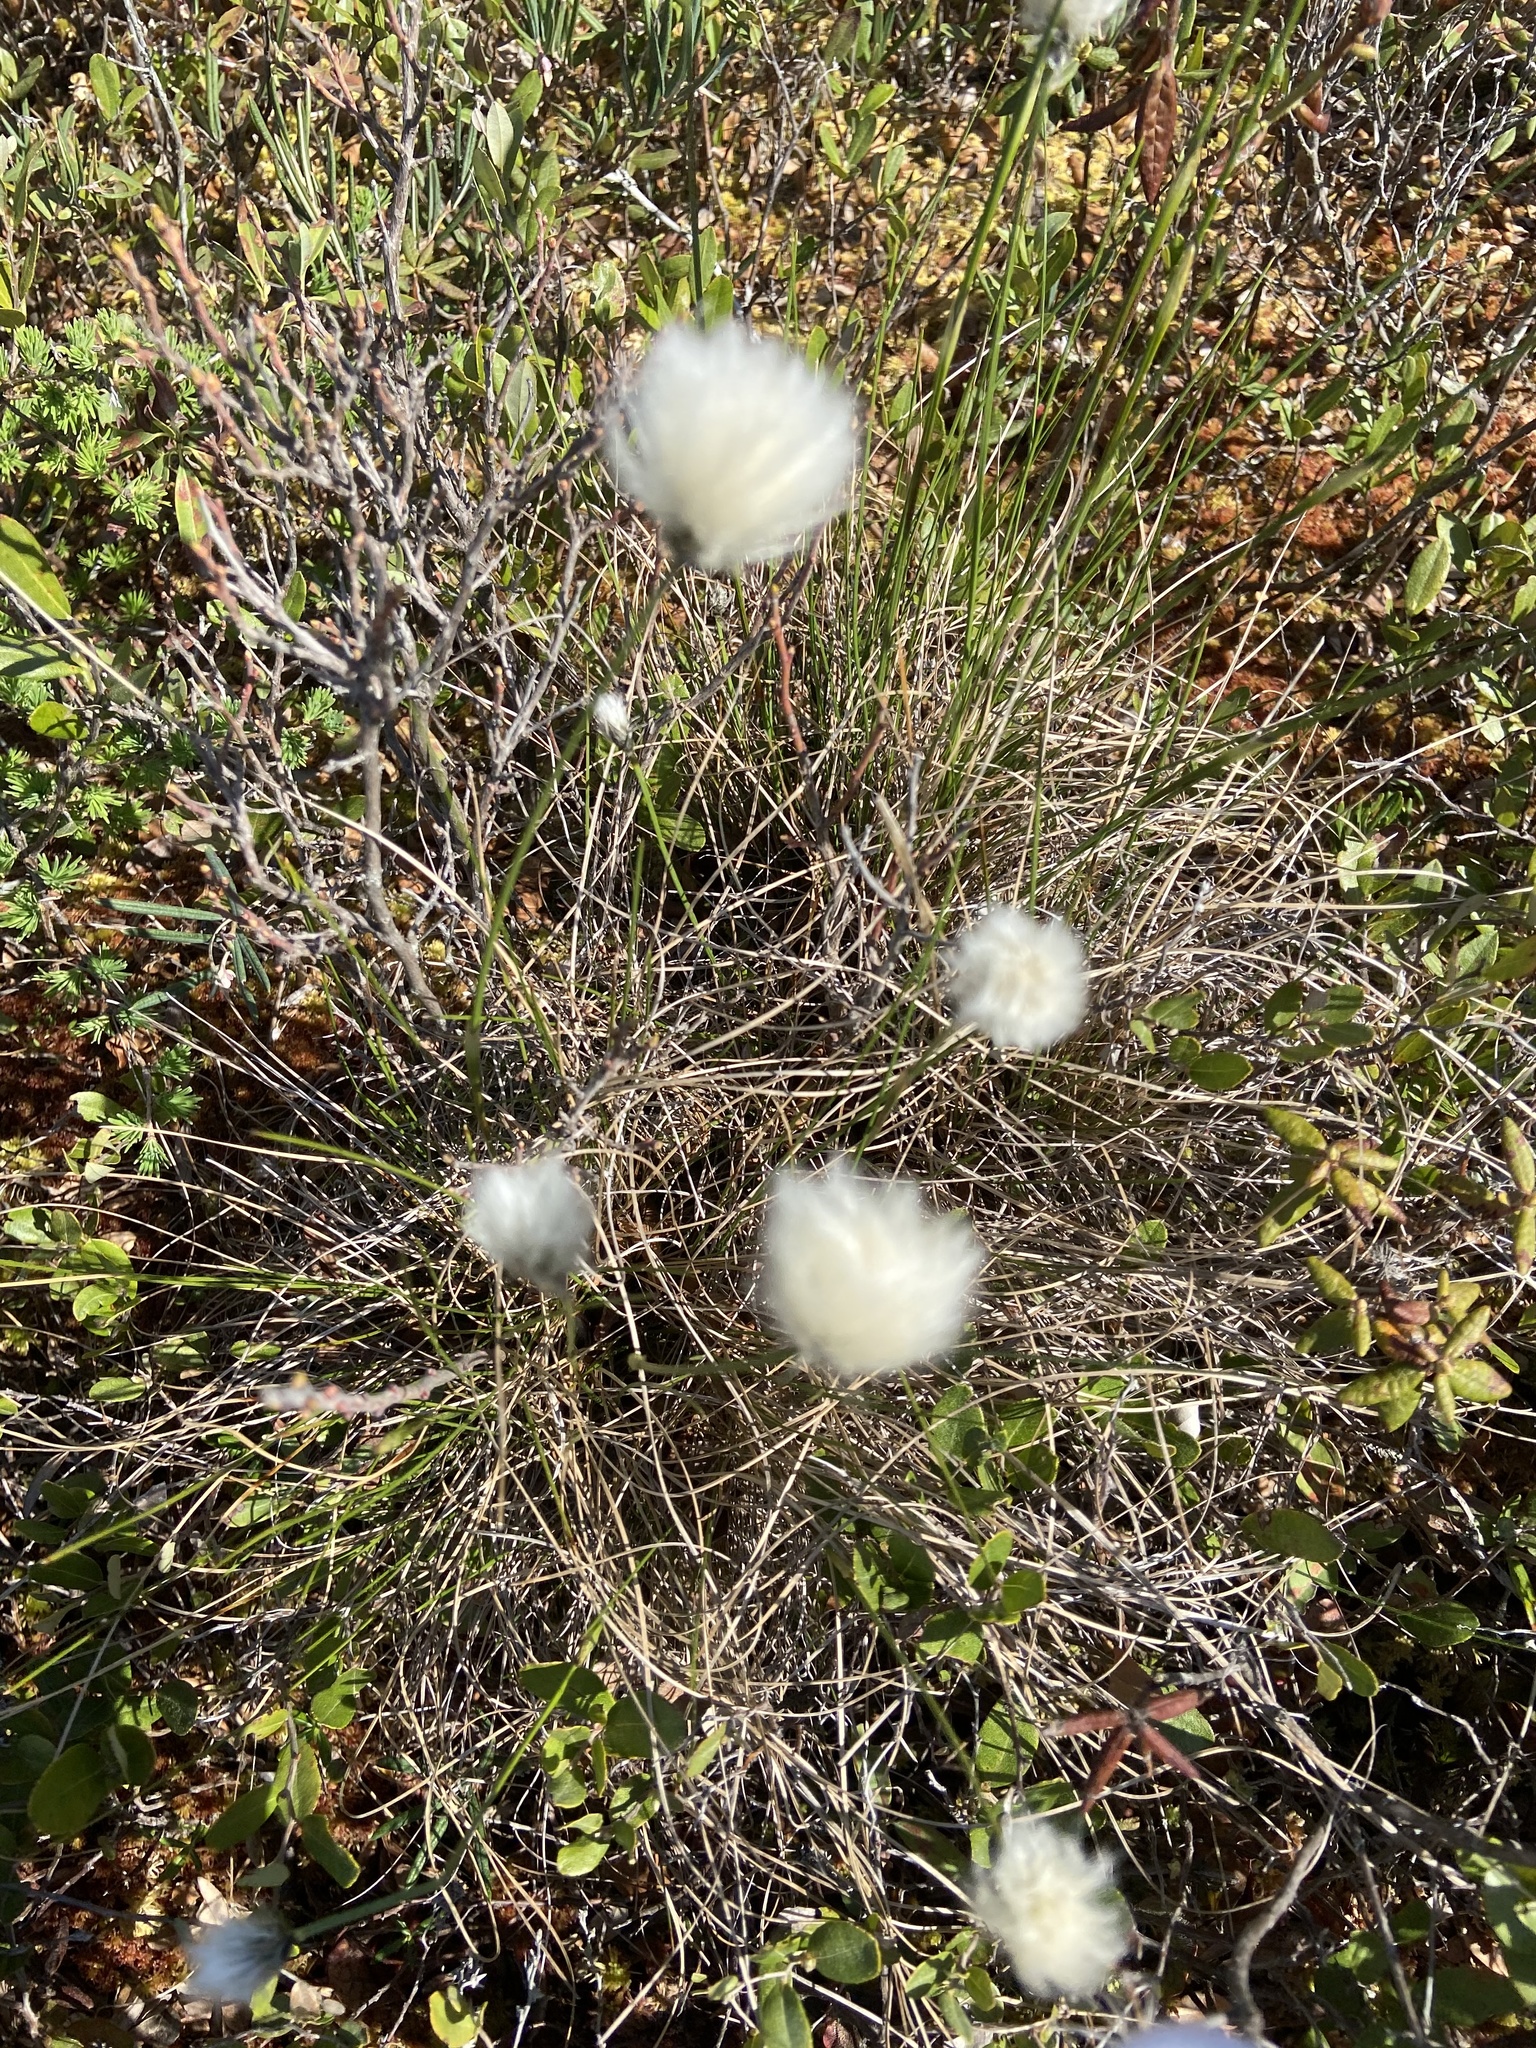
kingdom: Plantae
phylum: Tracheophyta
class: Liliopsida
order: Poales
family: Cyperaceae
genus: Eriophorum
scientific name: Eriophorum vaginatum
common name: Hare's-tail cottongrass
